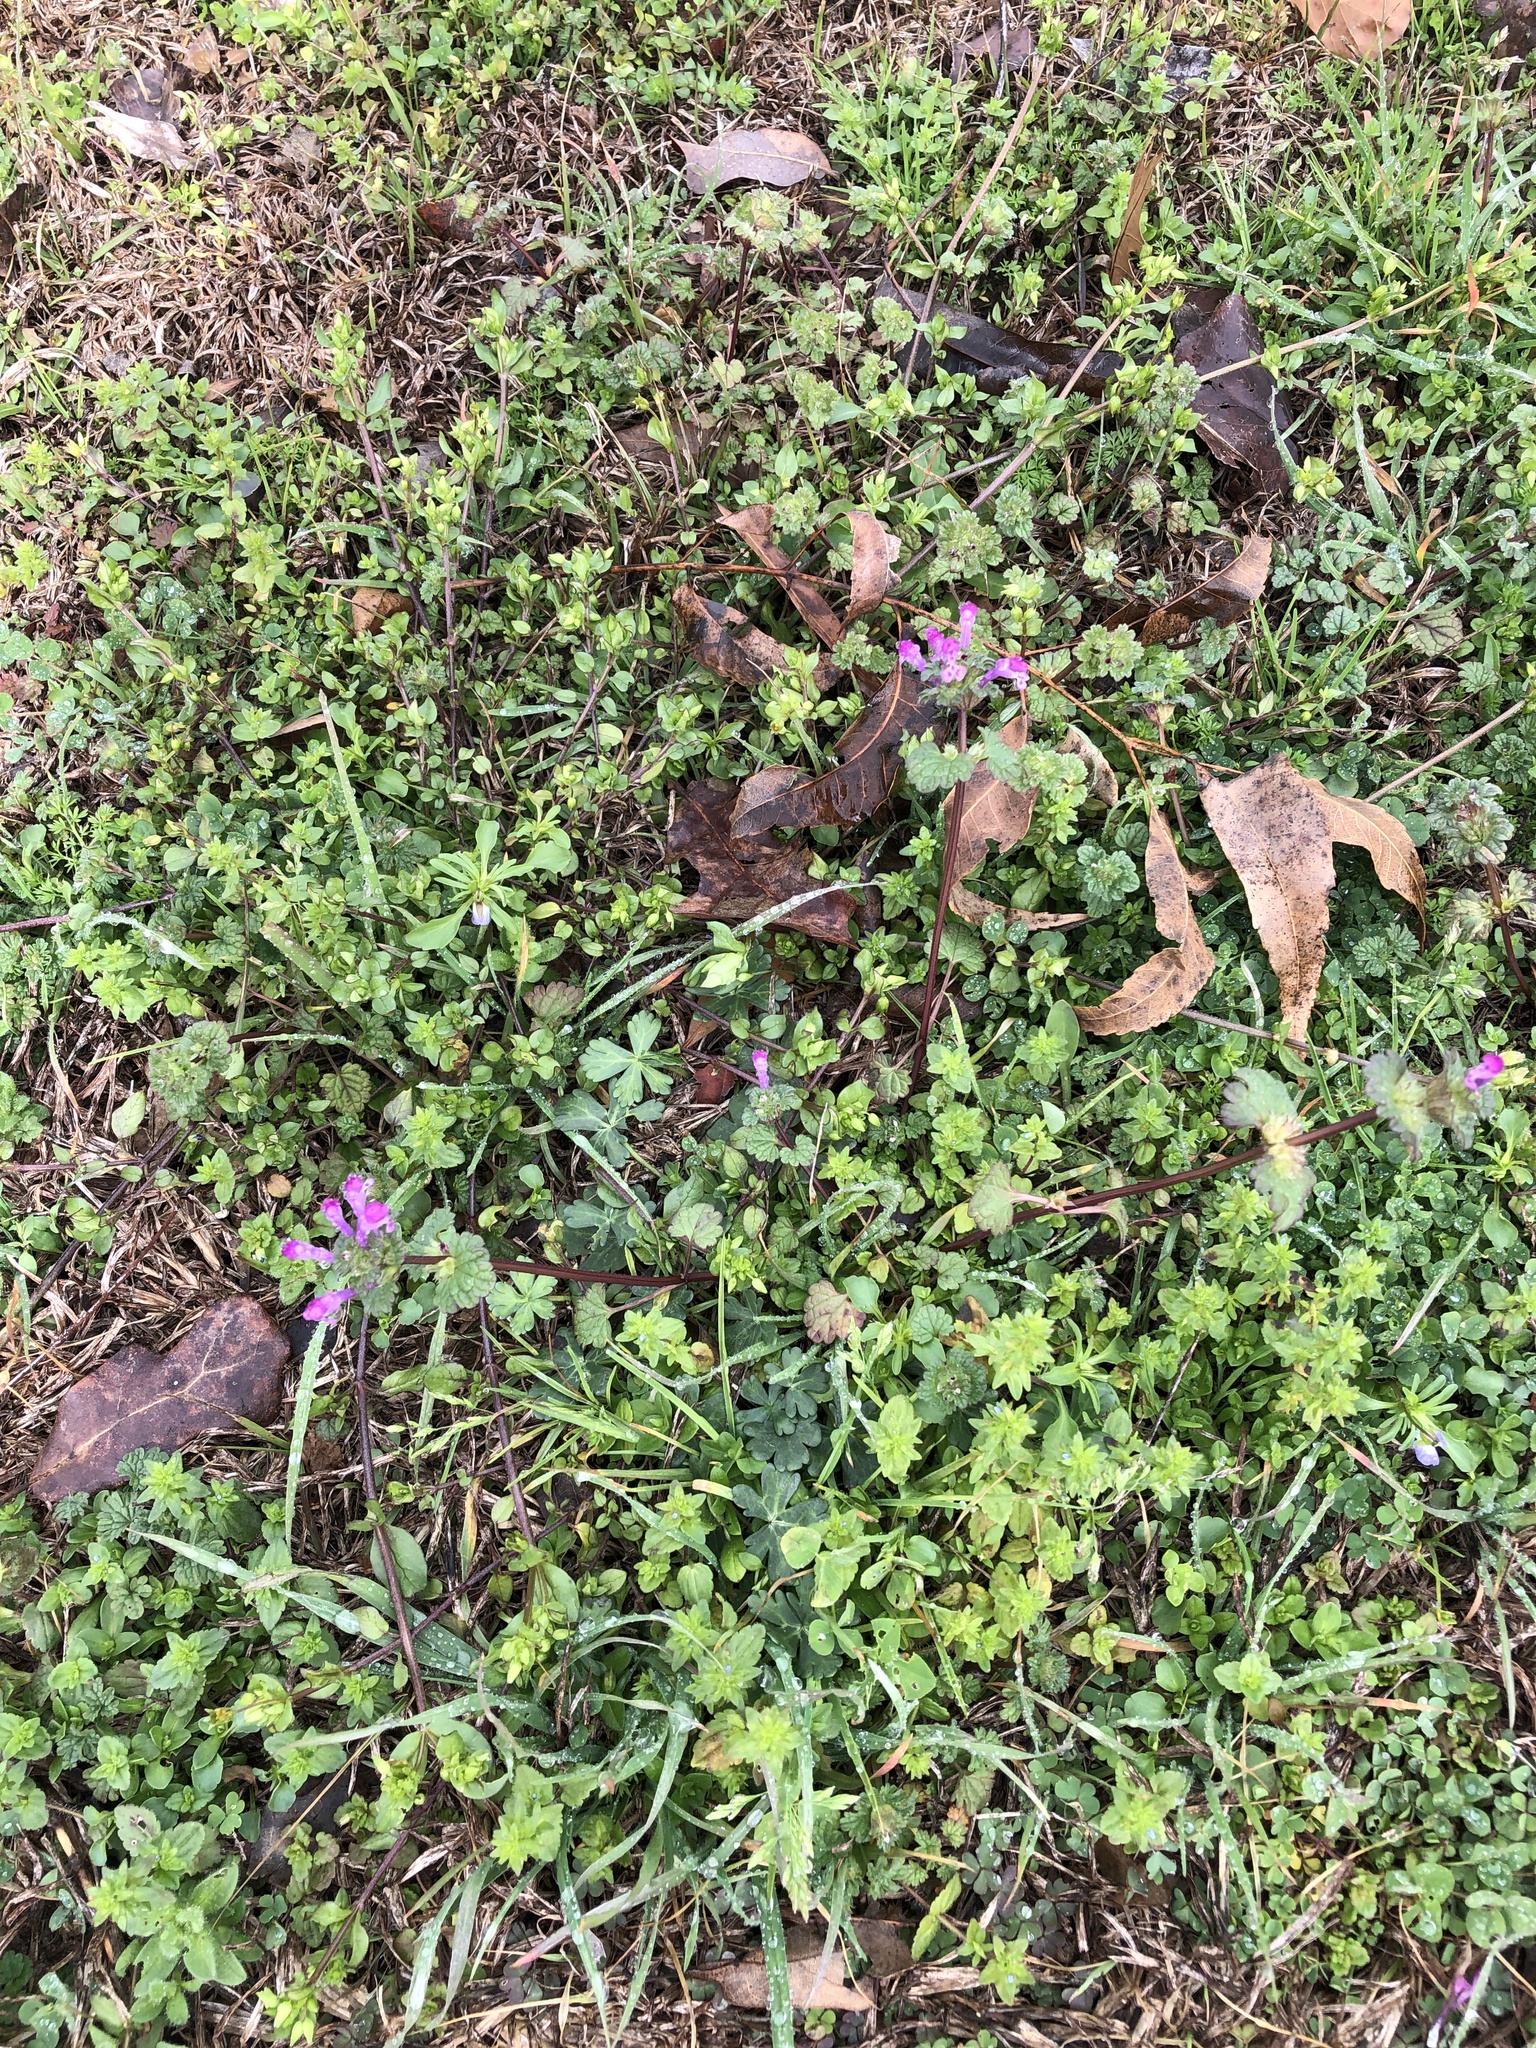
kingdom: Plantae
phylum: Tracheophyta
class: Magnoliopsida
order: Lamiales
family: Lamiaceae
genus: Lamium
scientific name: Lamium amplexicaule
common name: Henbit dead-nettle
